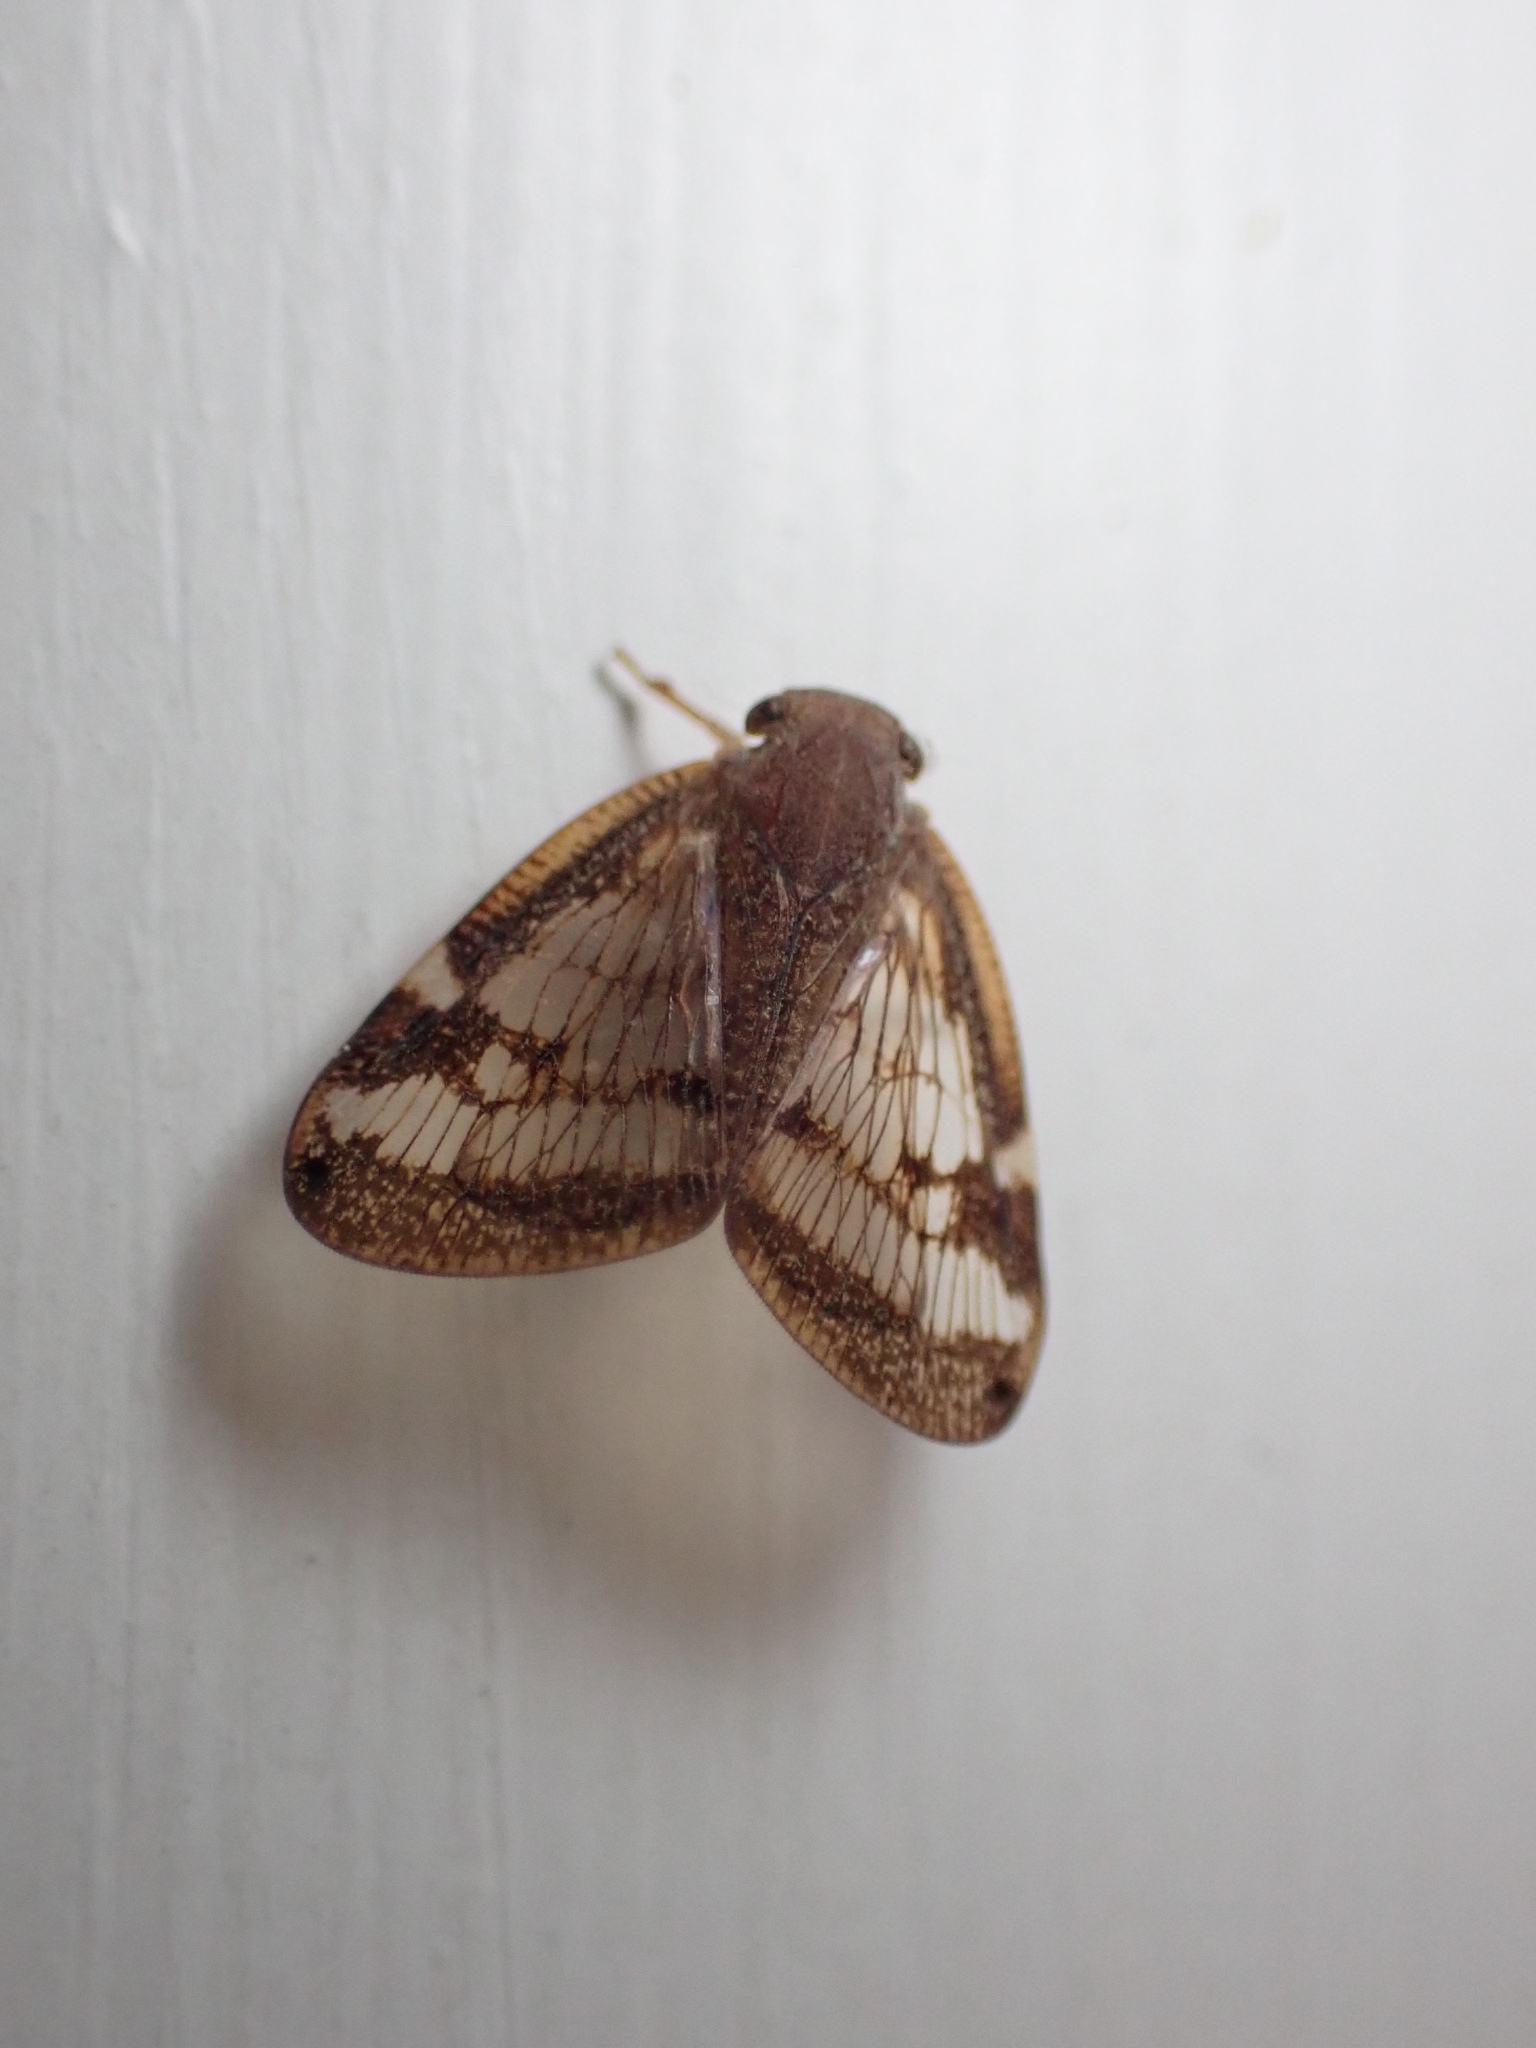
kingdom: Animalia
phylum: Arthropoda
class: Insecta
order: Hemiptera
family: Ricaniidae
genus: Scolypopa
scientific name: Scolypopa australis
